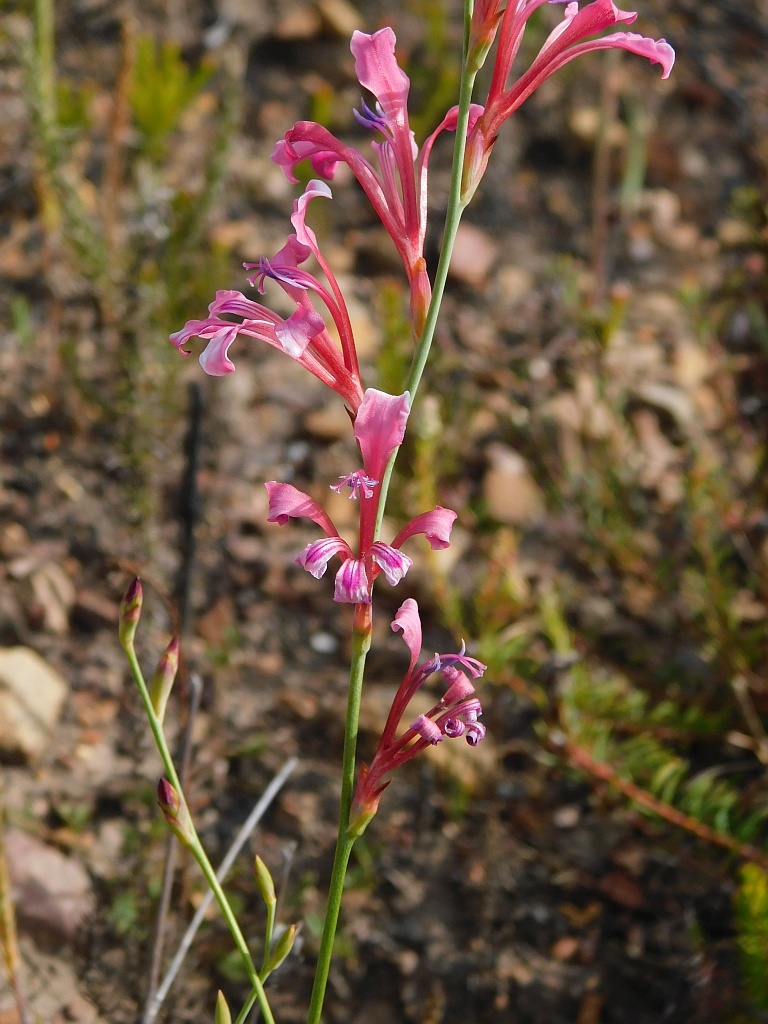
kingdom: Plantae
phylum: Tracheophyta
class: Liliopsida
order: Asparagales
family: Iridaceae
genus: Tritoniopsis
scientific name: Tritoniopsis ramosa
